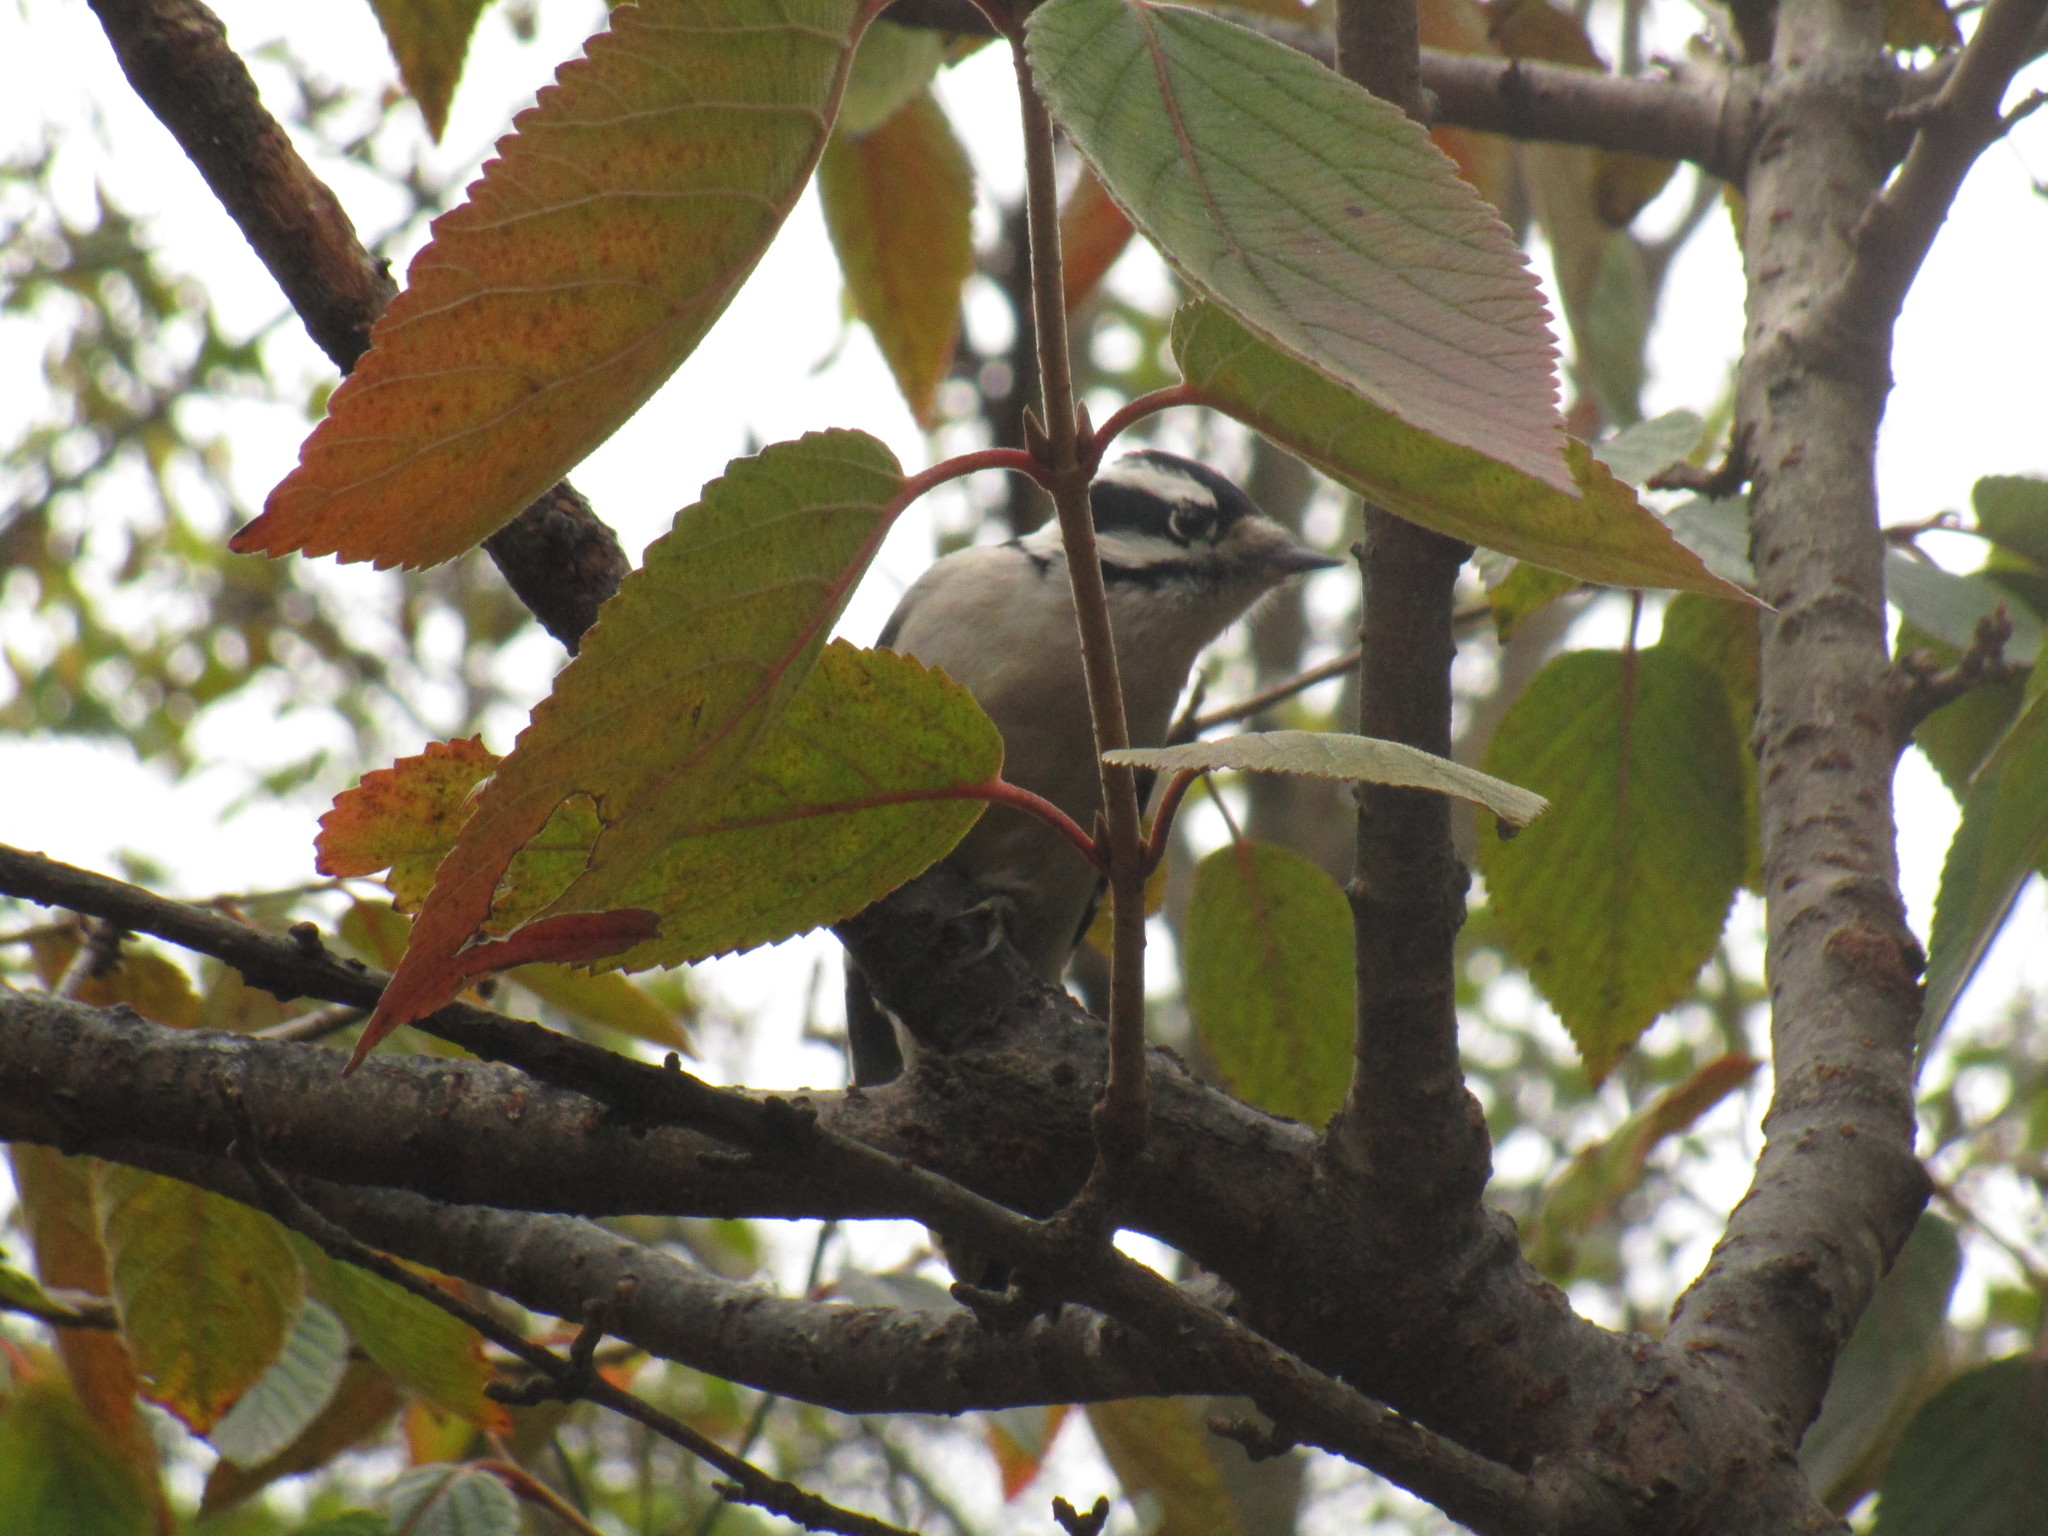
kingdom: Animalia
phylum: Chordata
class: Aves
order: Piciformes
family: Picidae
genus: Dryobates
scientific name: Dryobates pubescens
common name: Downy woodpecker
